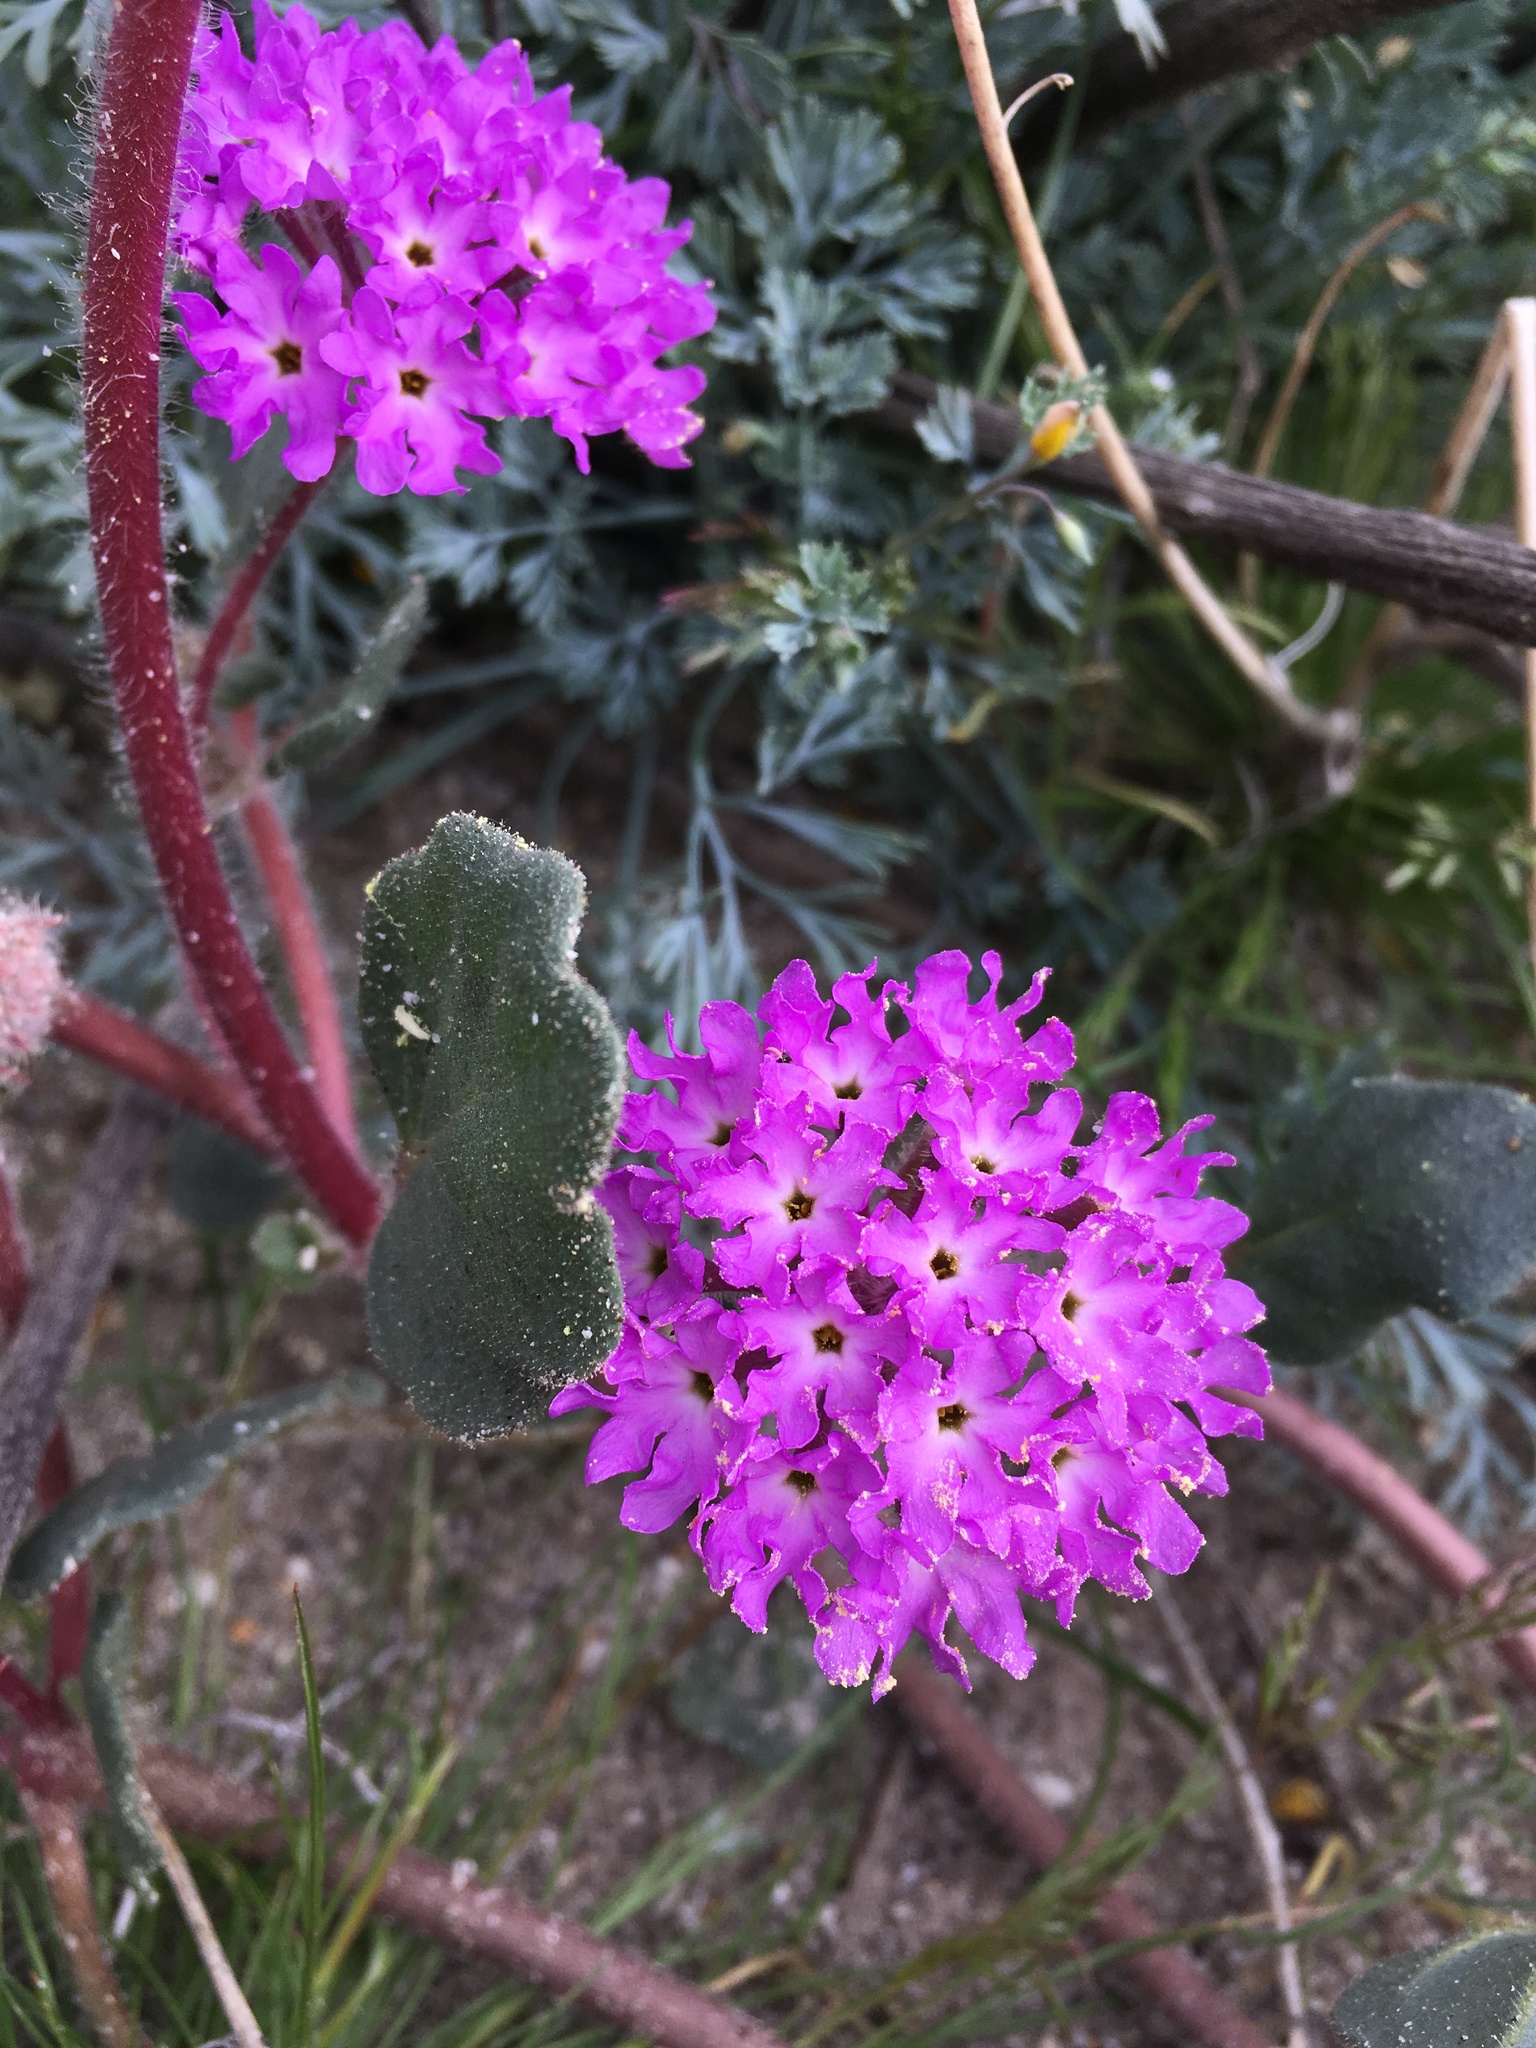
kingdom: Plantae
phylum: Tracheophyta
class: Magnoliopsida
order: Caryophyllales
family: Nyctaginaceae
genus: Abronia
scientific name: Abronia villosa
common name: Desert sand-verbena
